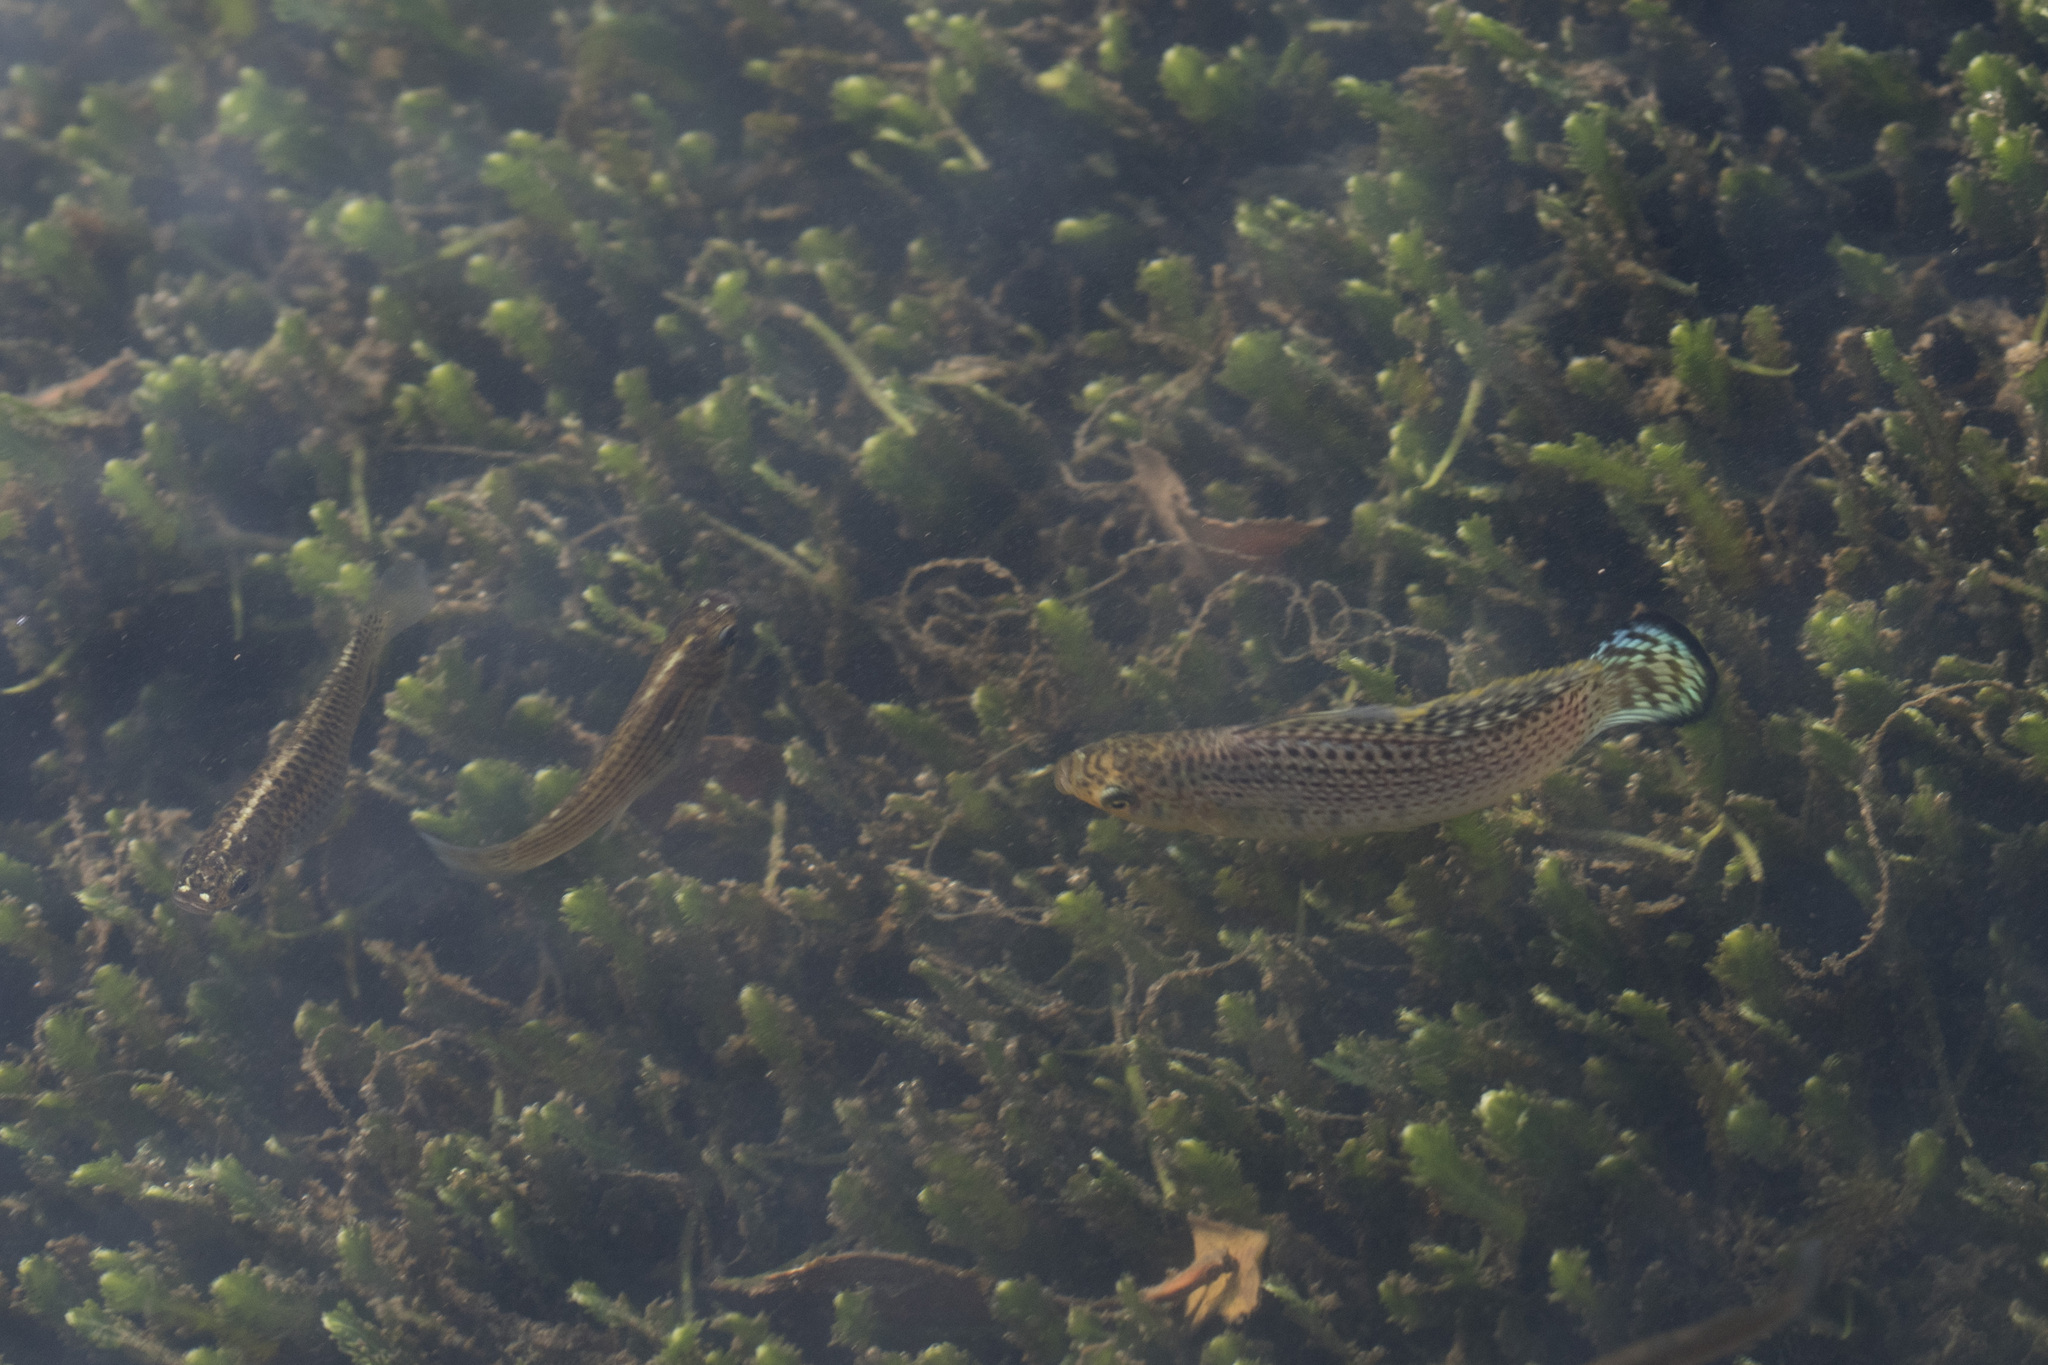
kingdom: Animalia
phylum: Chordata
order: Cyprinodontiformes
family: Poeciliidae
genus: Poecilia
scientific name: Poecilia latipinna
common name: Sailfin molly
